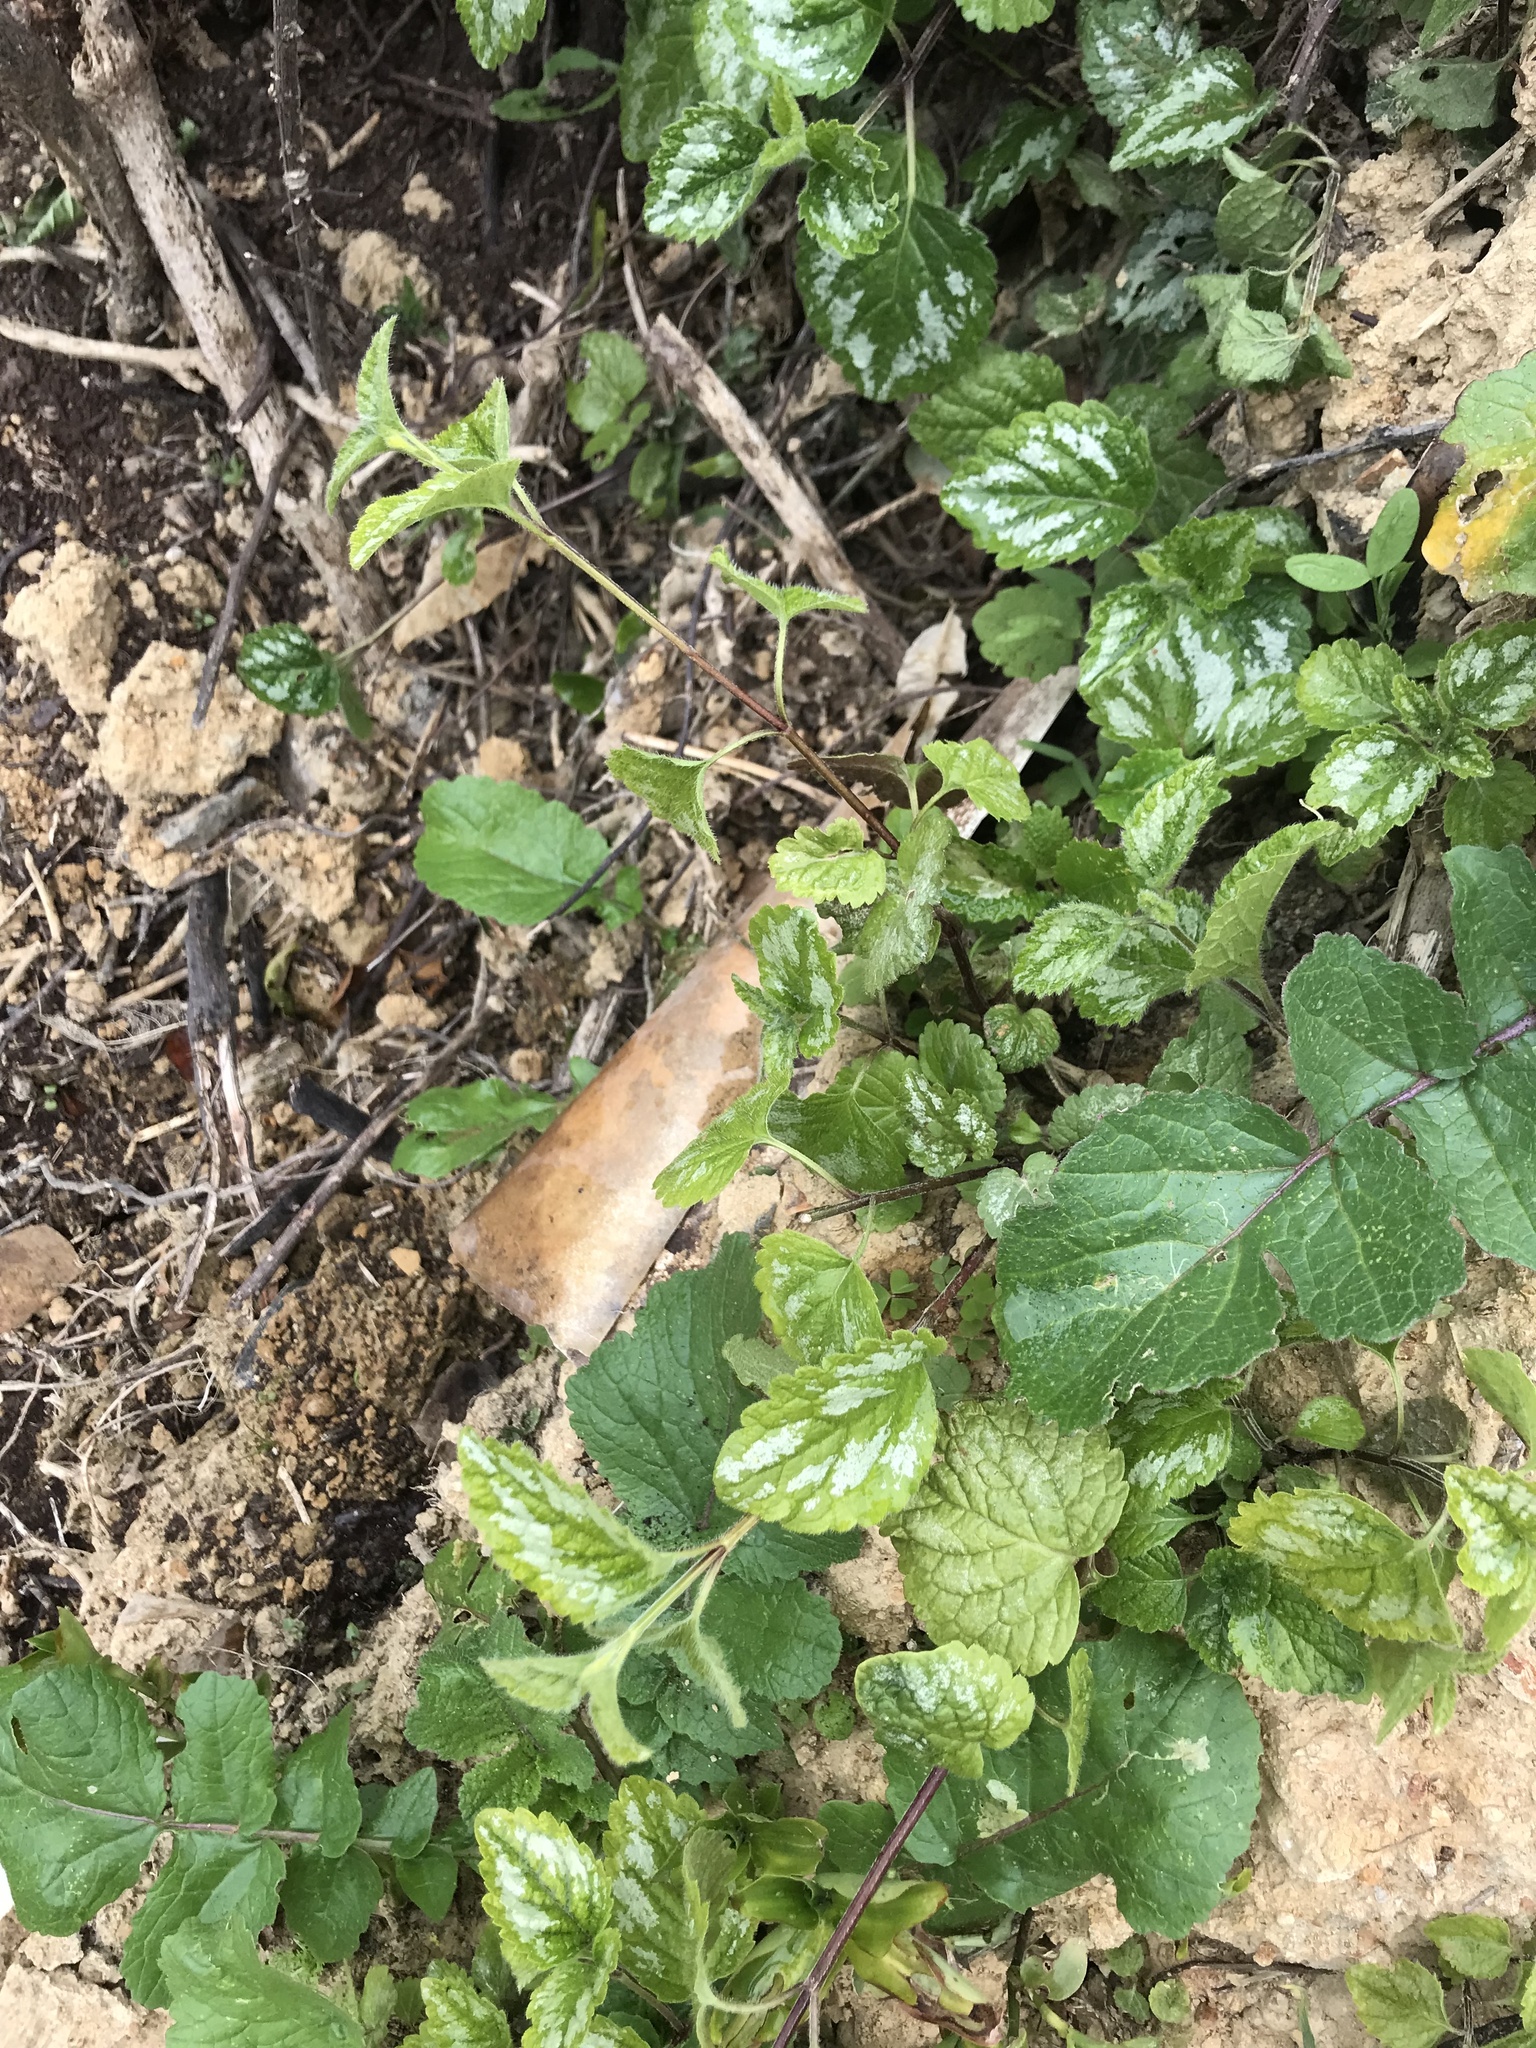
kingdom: Plantae
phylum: Tracheophyta
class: Magnoliopsida
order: Lamiales
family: Lamiaceae
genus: Lamium
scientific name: Lamium galeobdolon
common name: Yellow archangel
